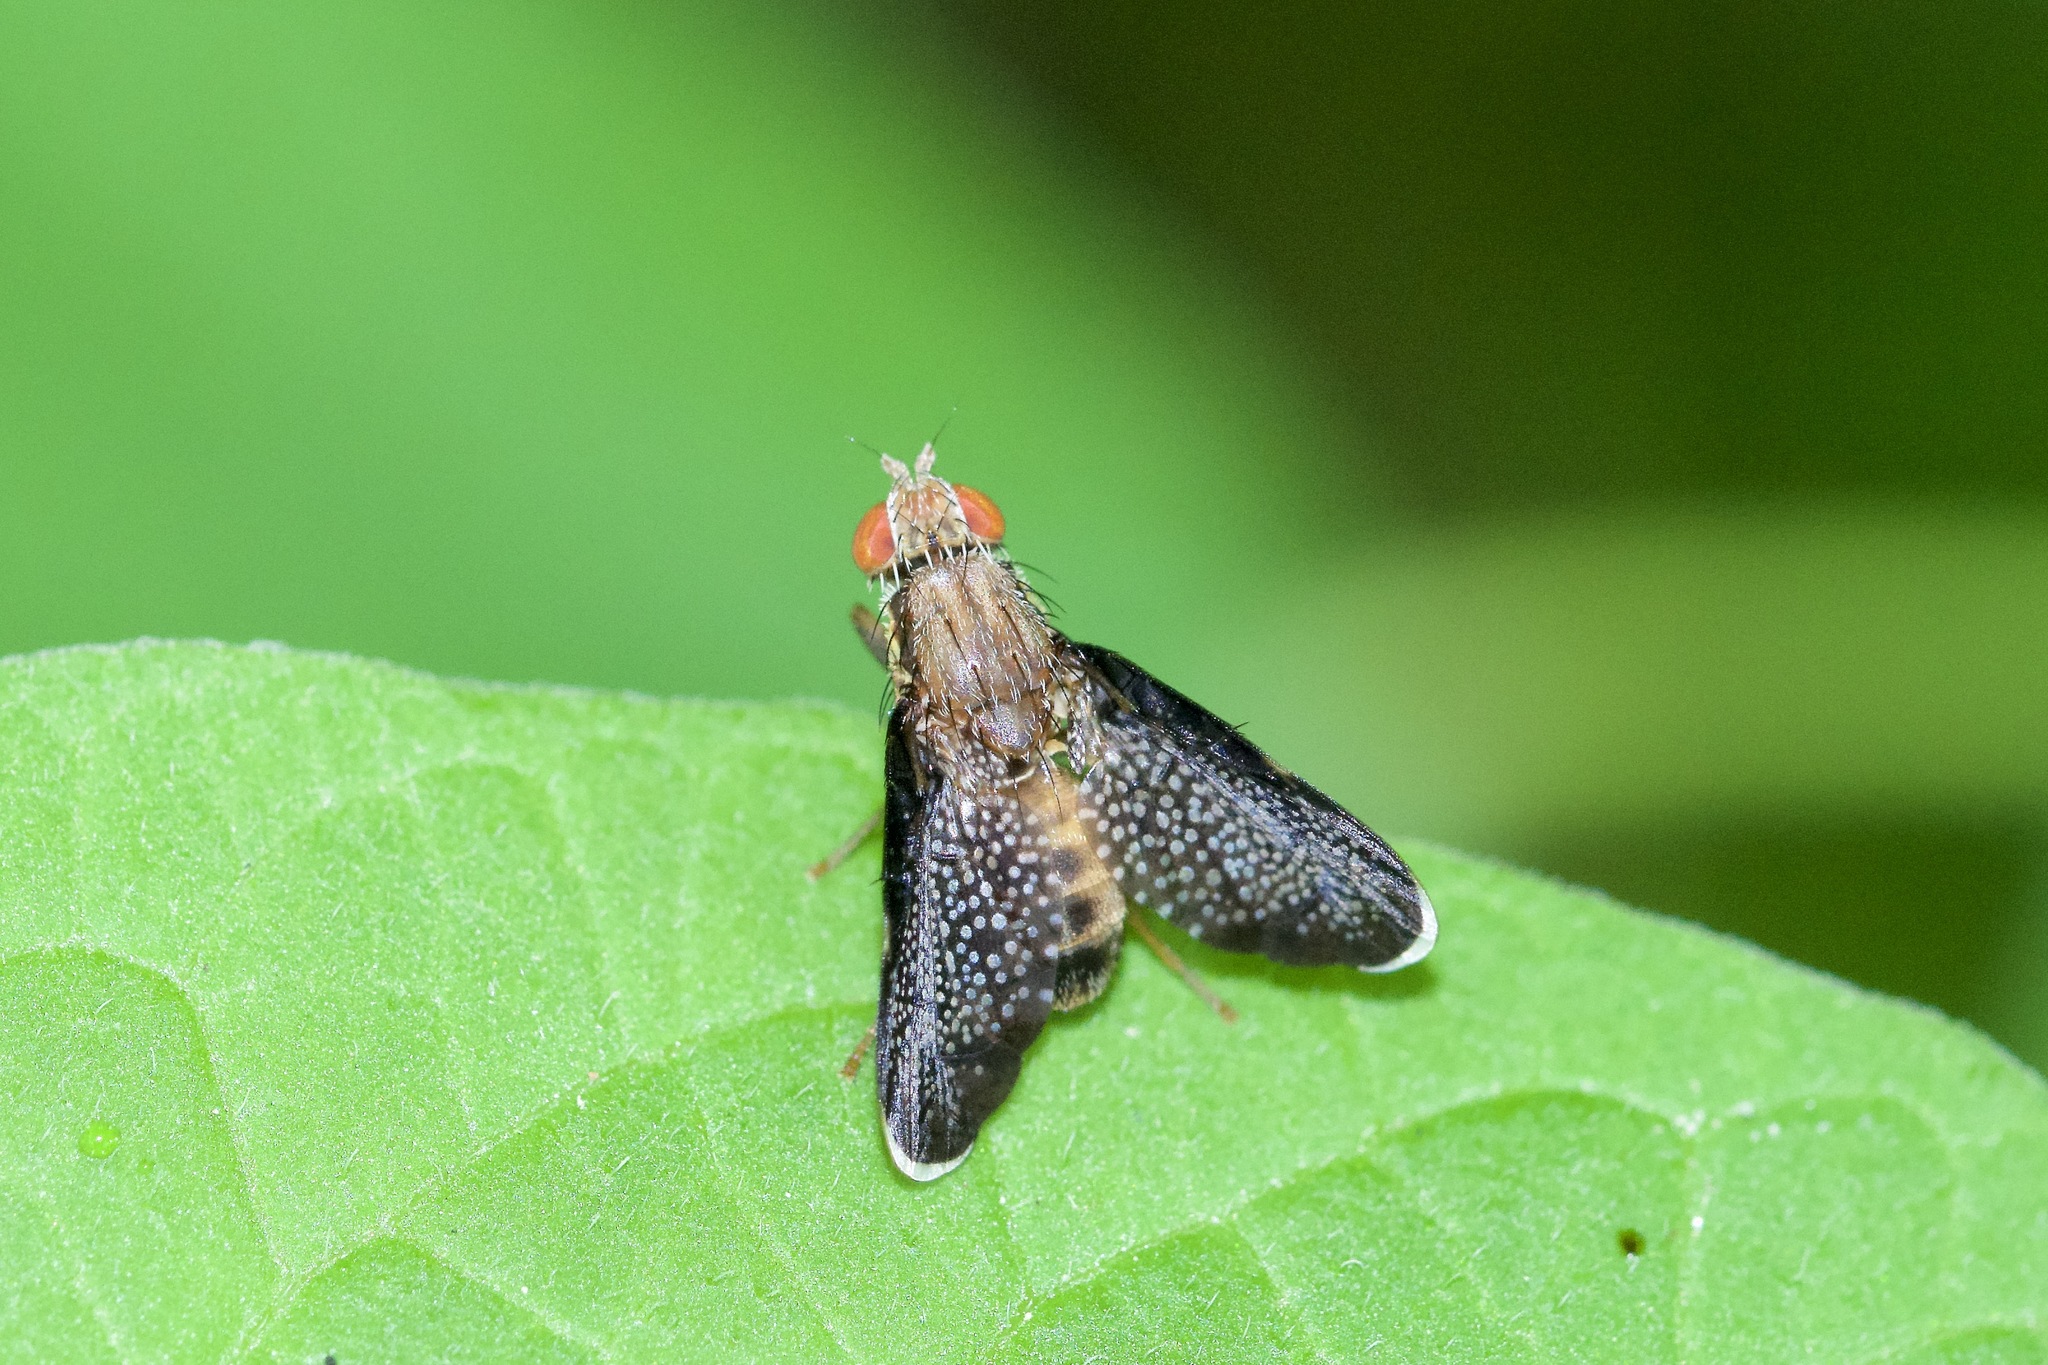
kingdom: Animalia
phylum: Arthropoda
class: Insecta
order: Diptera
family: Tephritidae
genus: Eutreta
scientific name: Eutreta novaeboracensis
